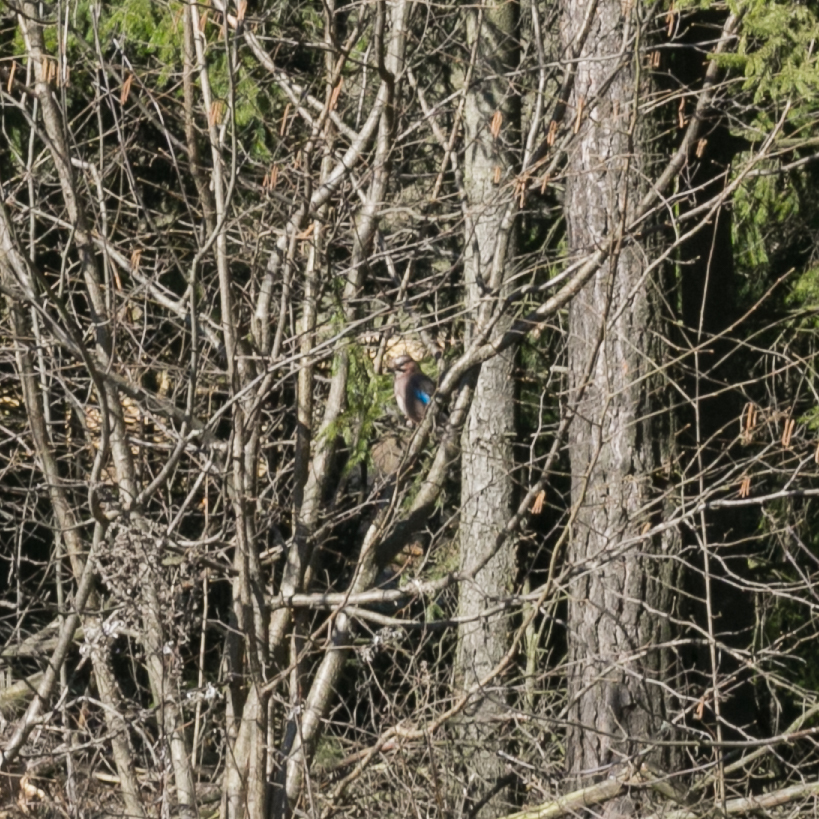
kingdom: Animalia
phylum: Chordata
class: Aves
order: Passeriformes
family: Corvidae
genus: Garrulus
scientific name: Garrulus glandarius
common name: Eurasian jay
